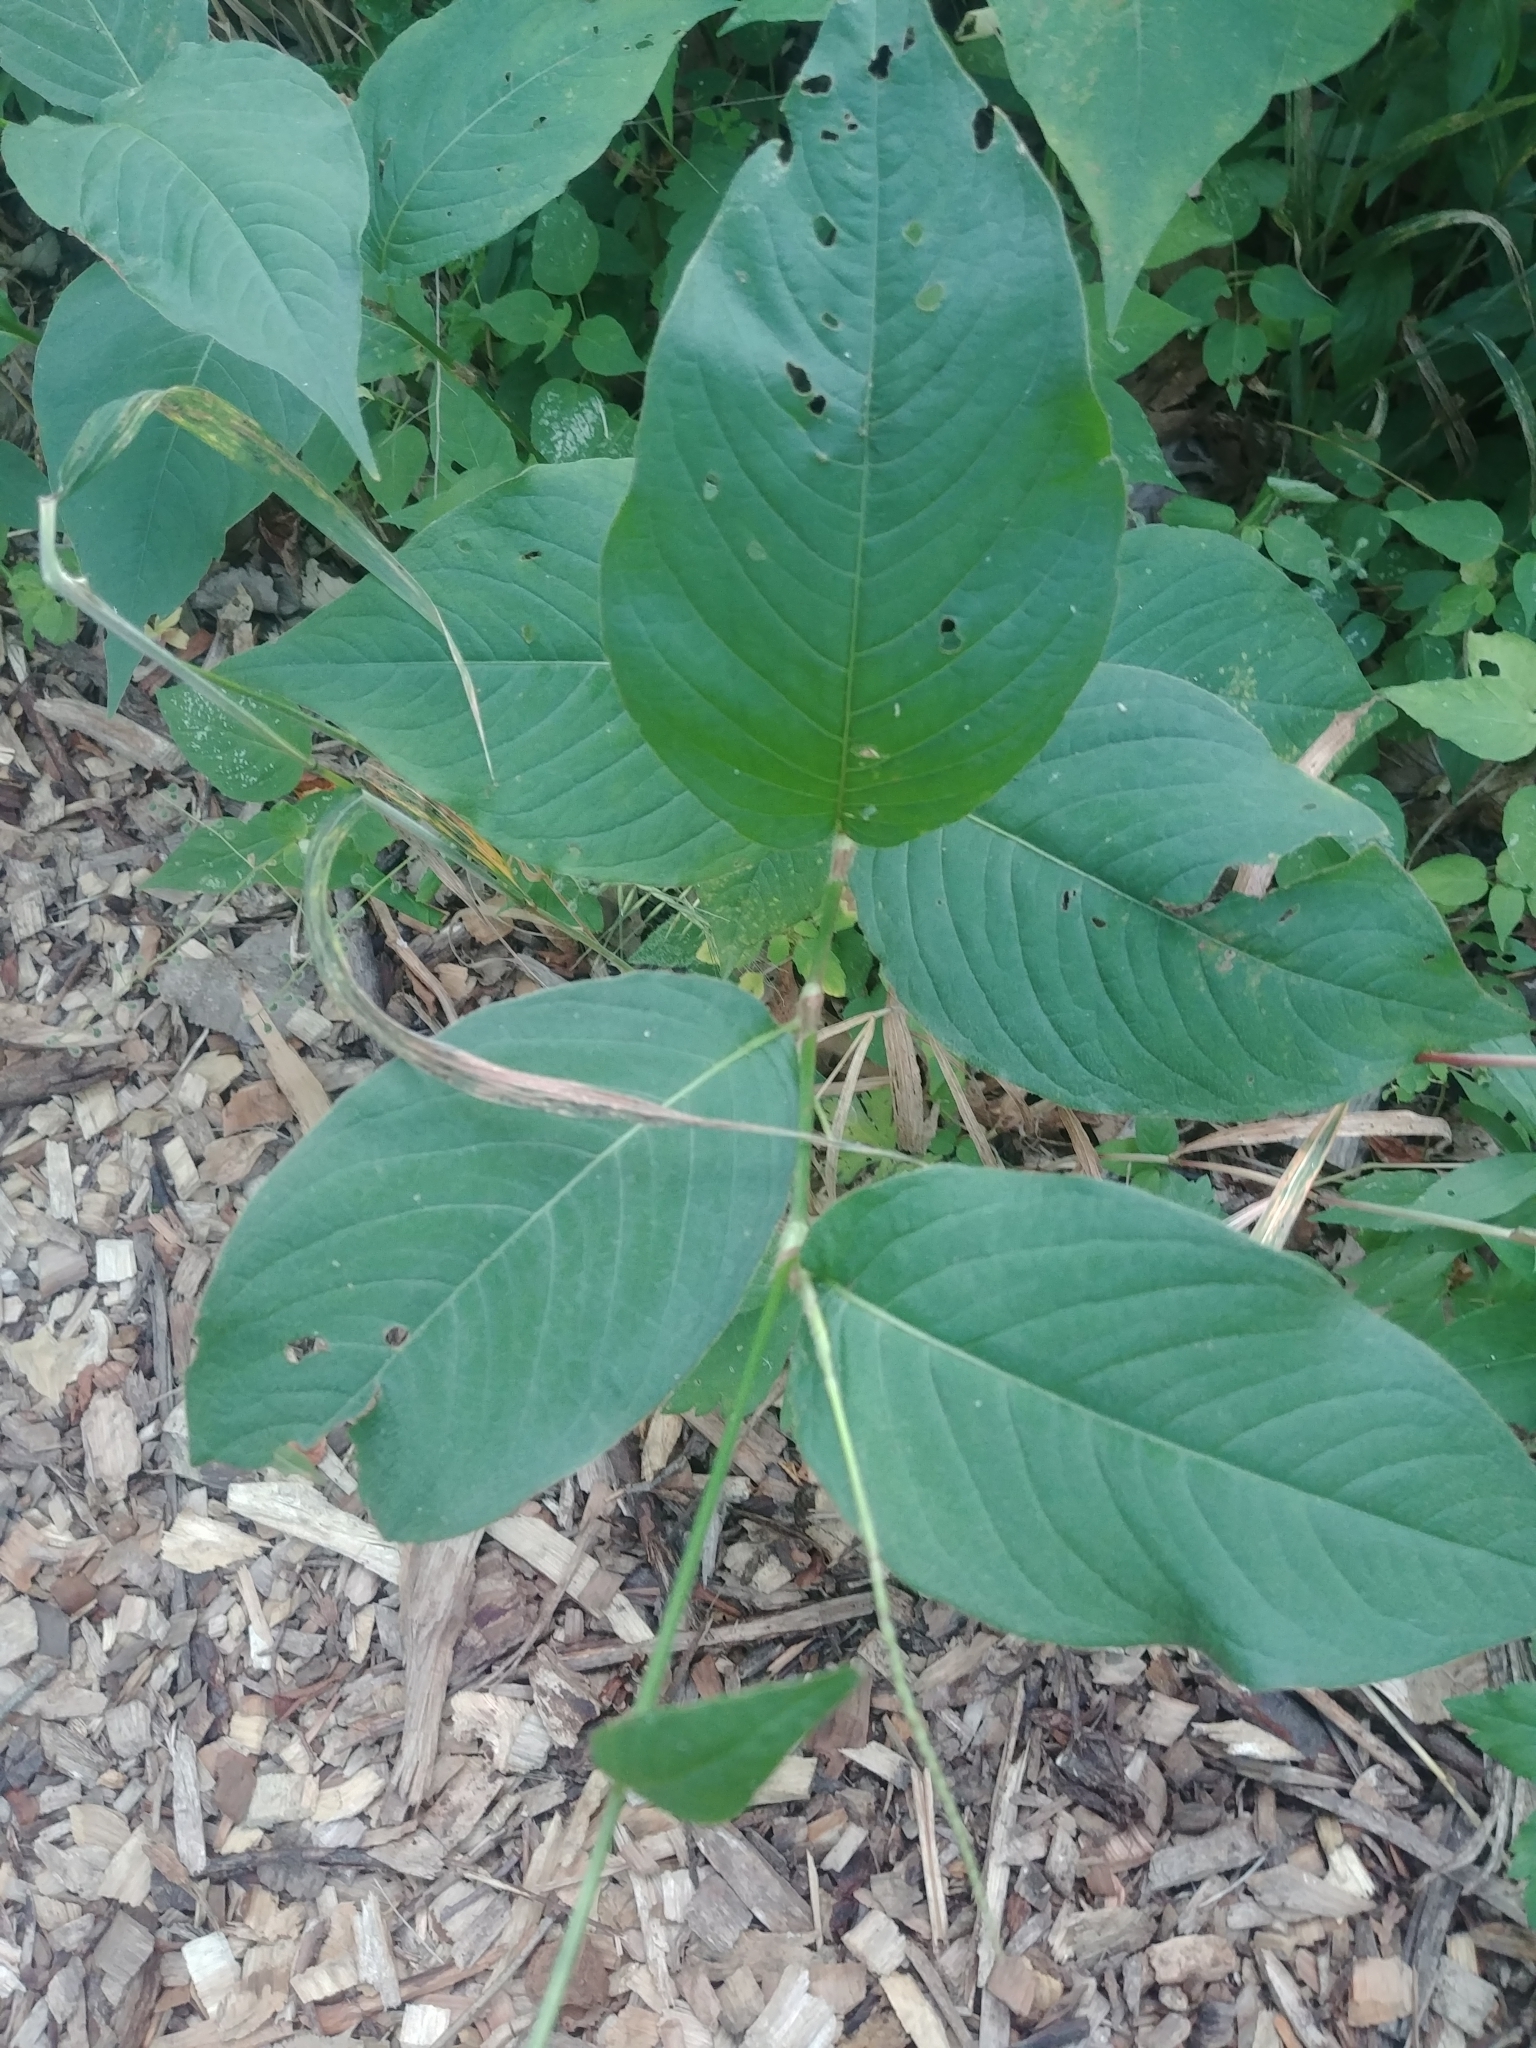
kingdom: Plantae
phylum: Tracheophyta
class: Magnoliopsida
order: Caryophyllales
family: Polygonaceae
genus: Persicaria
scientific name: Persicaria virginiana
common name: Jumpseed
